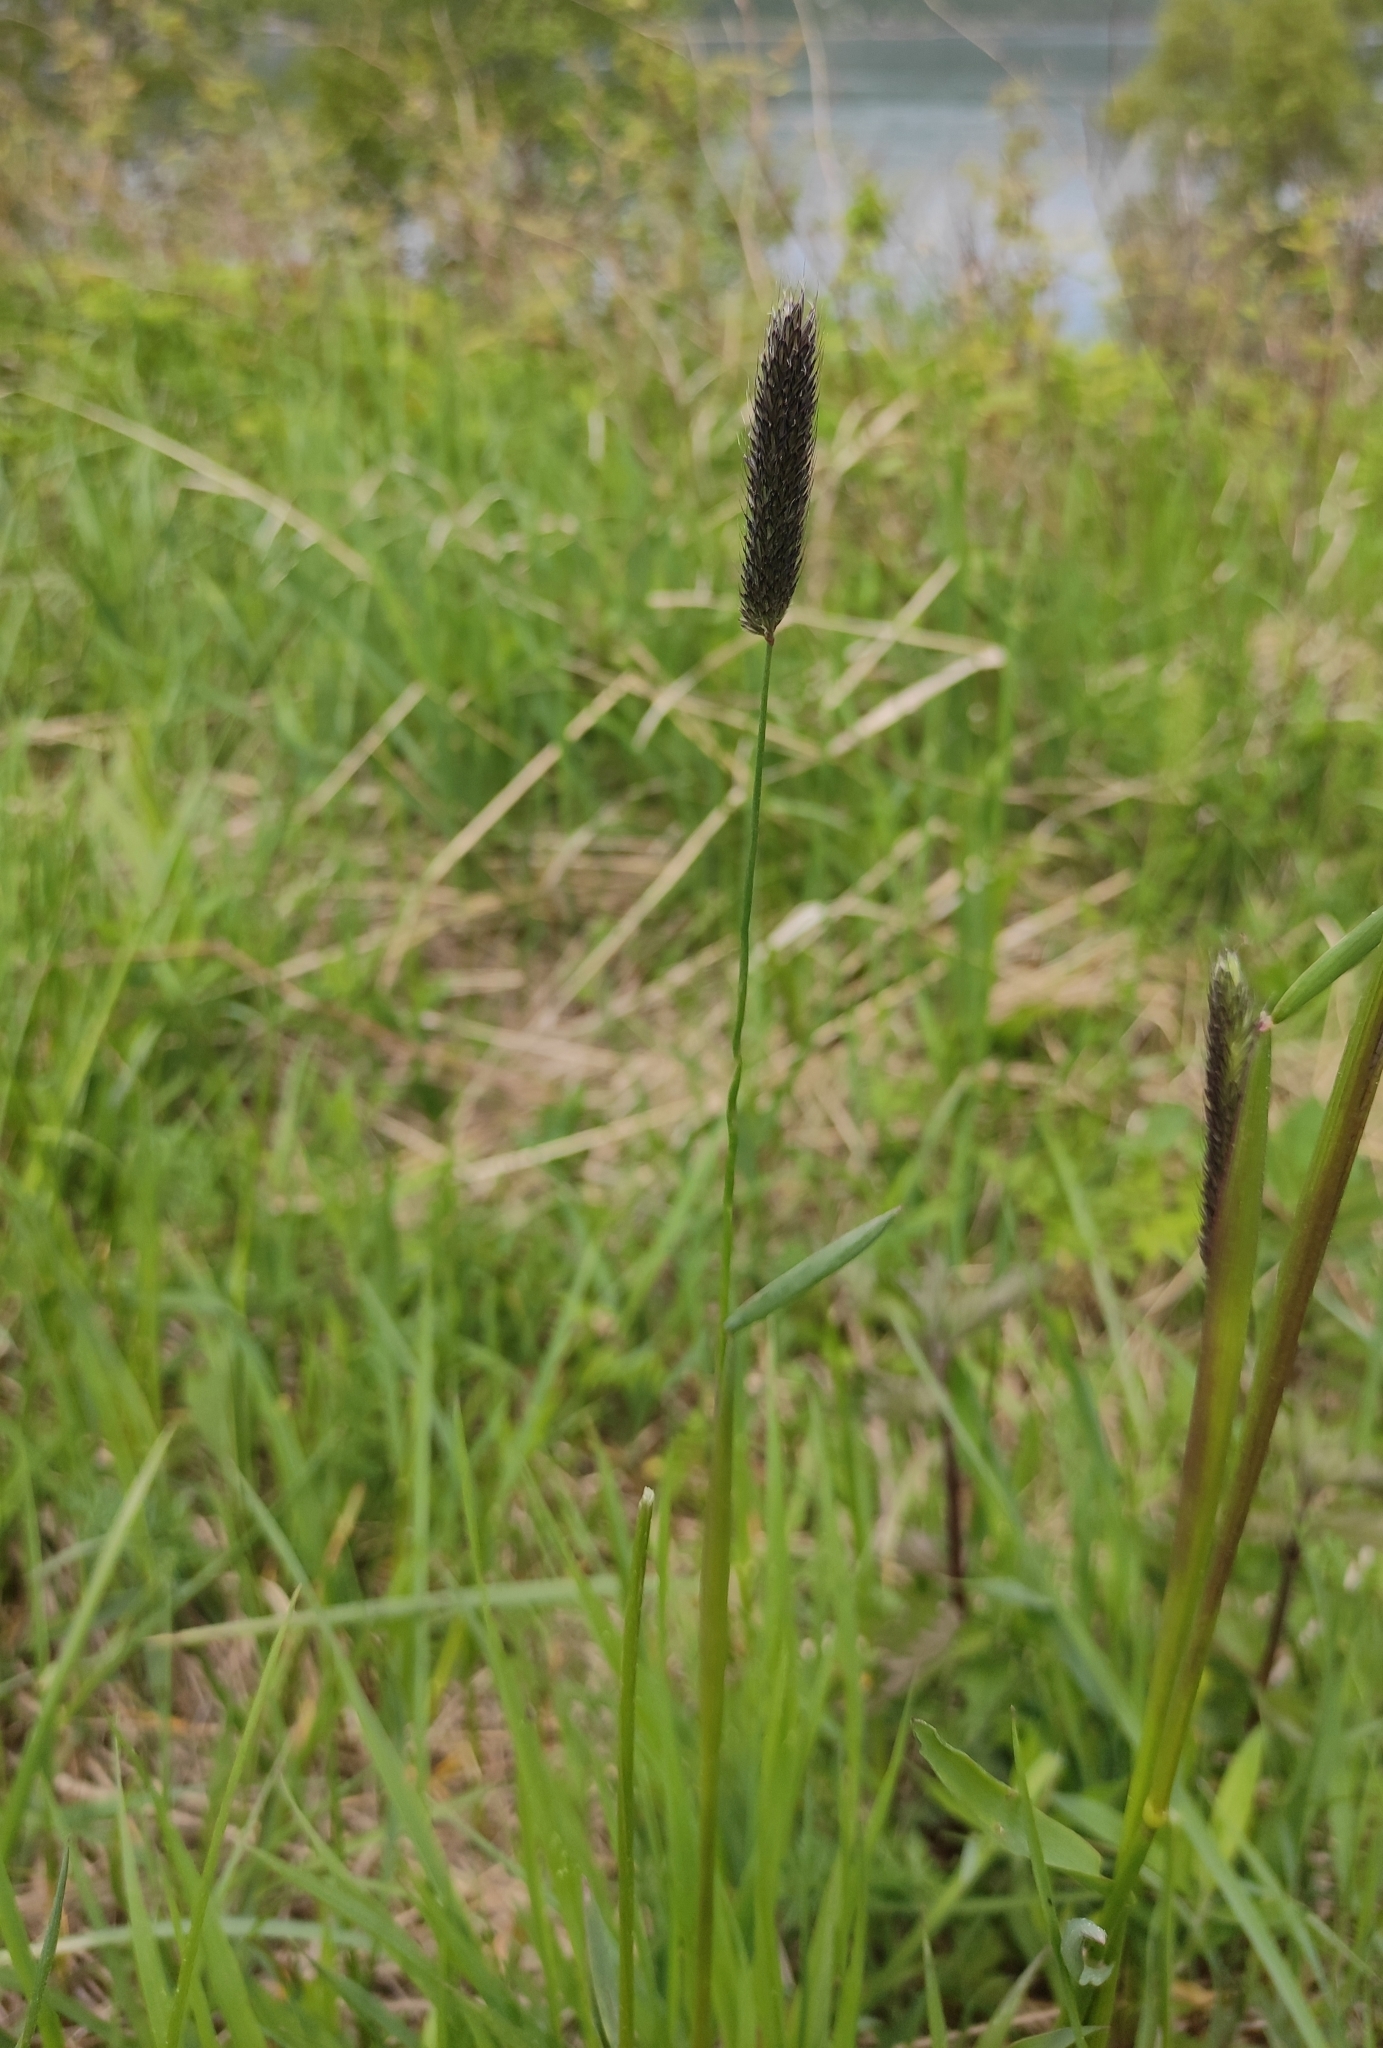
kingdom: Plantae
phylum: Tracheophyta
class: Liliopsida
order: Poales
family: Poaceae
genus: Alopecurus
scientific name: Alopecurus pratensis
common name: Meadow foxtail
